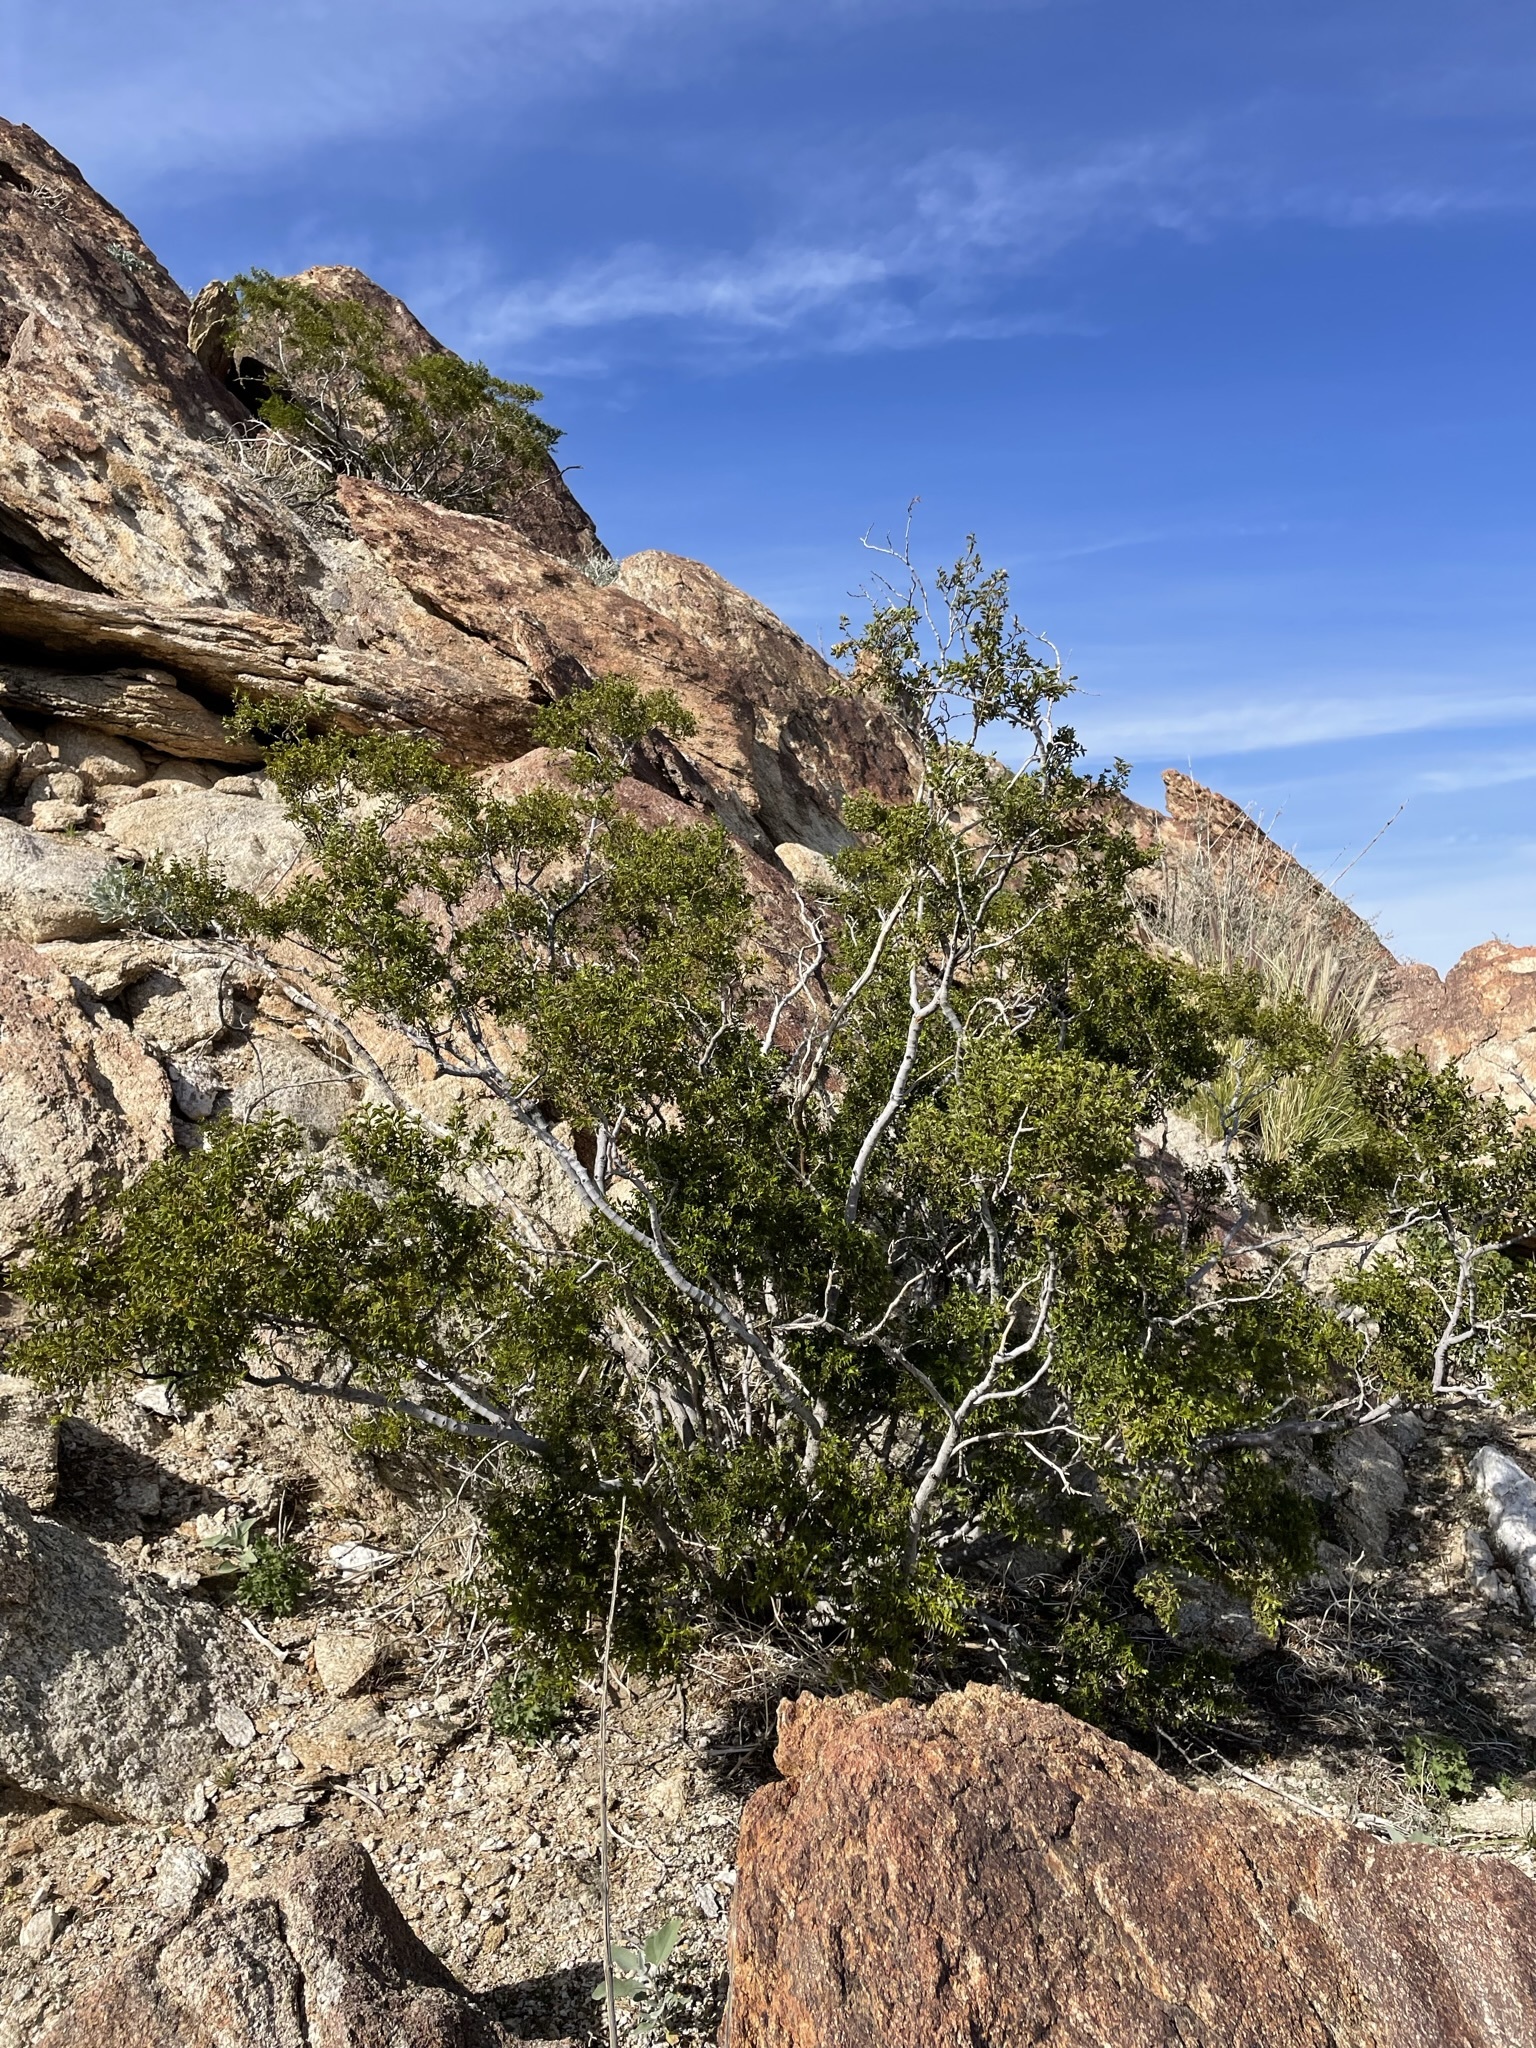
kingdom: Plantae
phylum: Tracheophyta
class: Magnoliopsida
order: Zygophyllales
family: Zygophyllaceae
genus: Larrea
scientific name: Larrea tridentata
